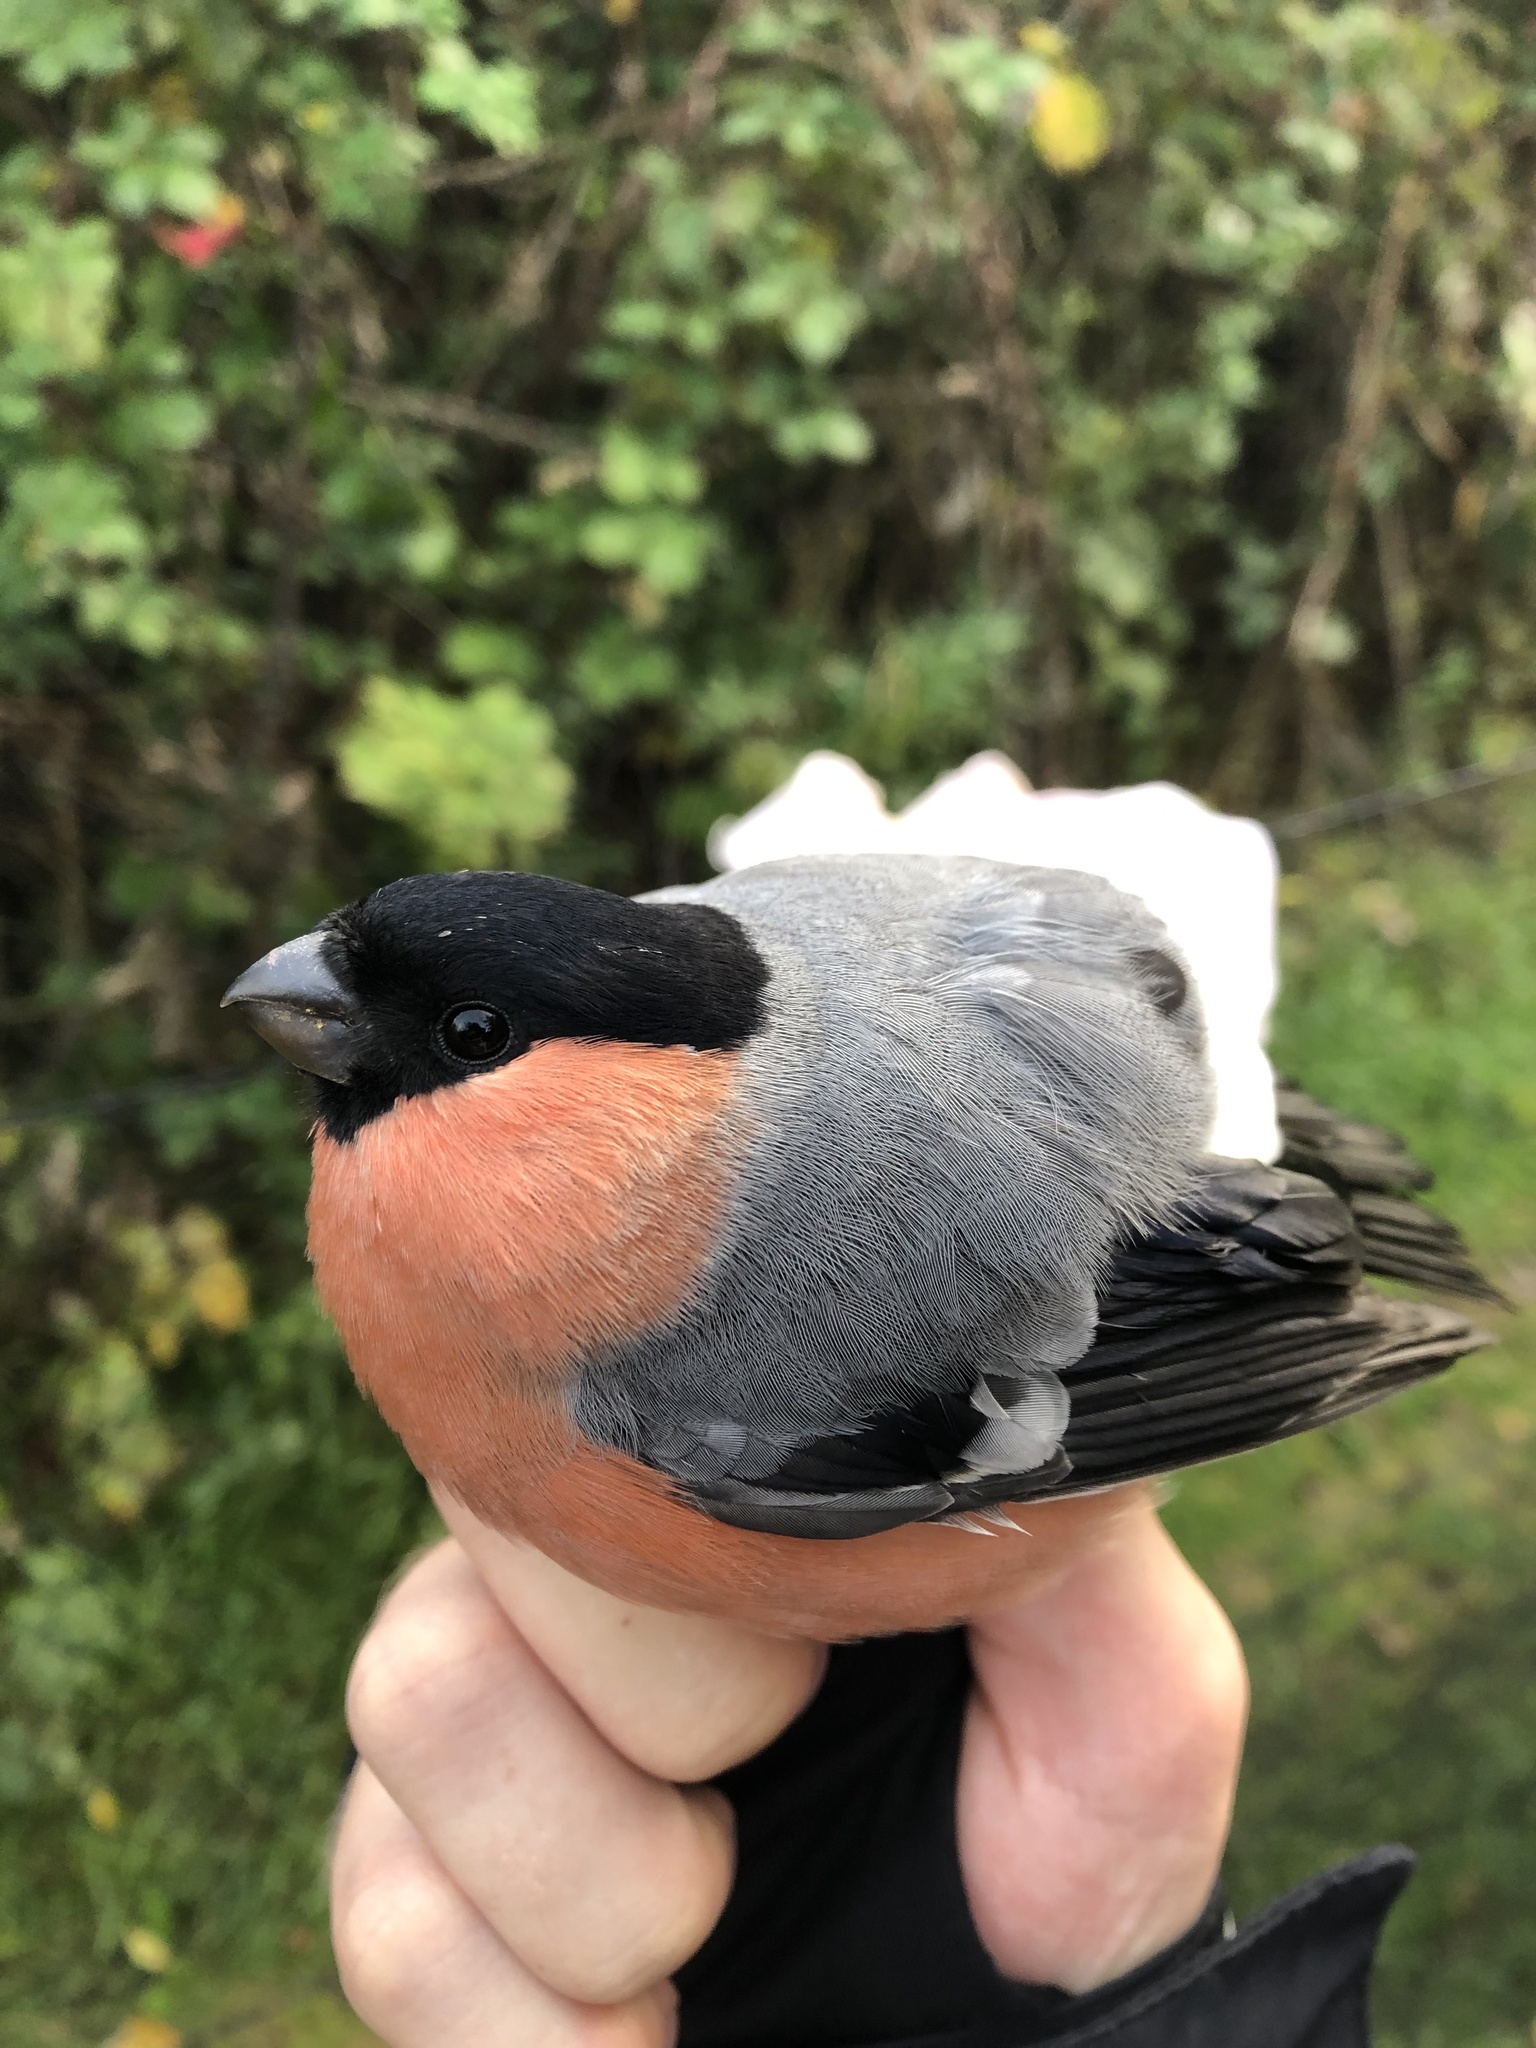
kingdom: Animalia
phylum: Chordata
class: Aves
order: Passeriformes
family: Fringillidae
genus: Pyrrhula
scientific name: Pyrrhula pyrrhula
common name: Eurasian bullfinch
